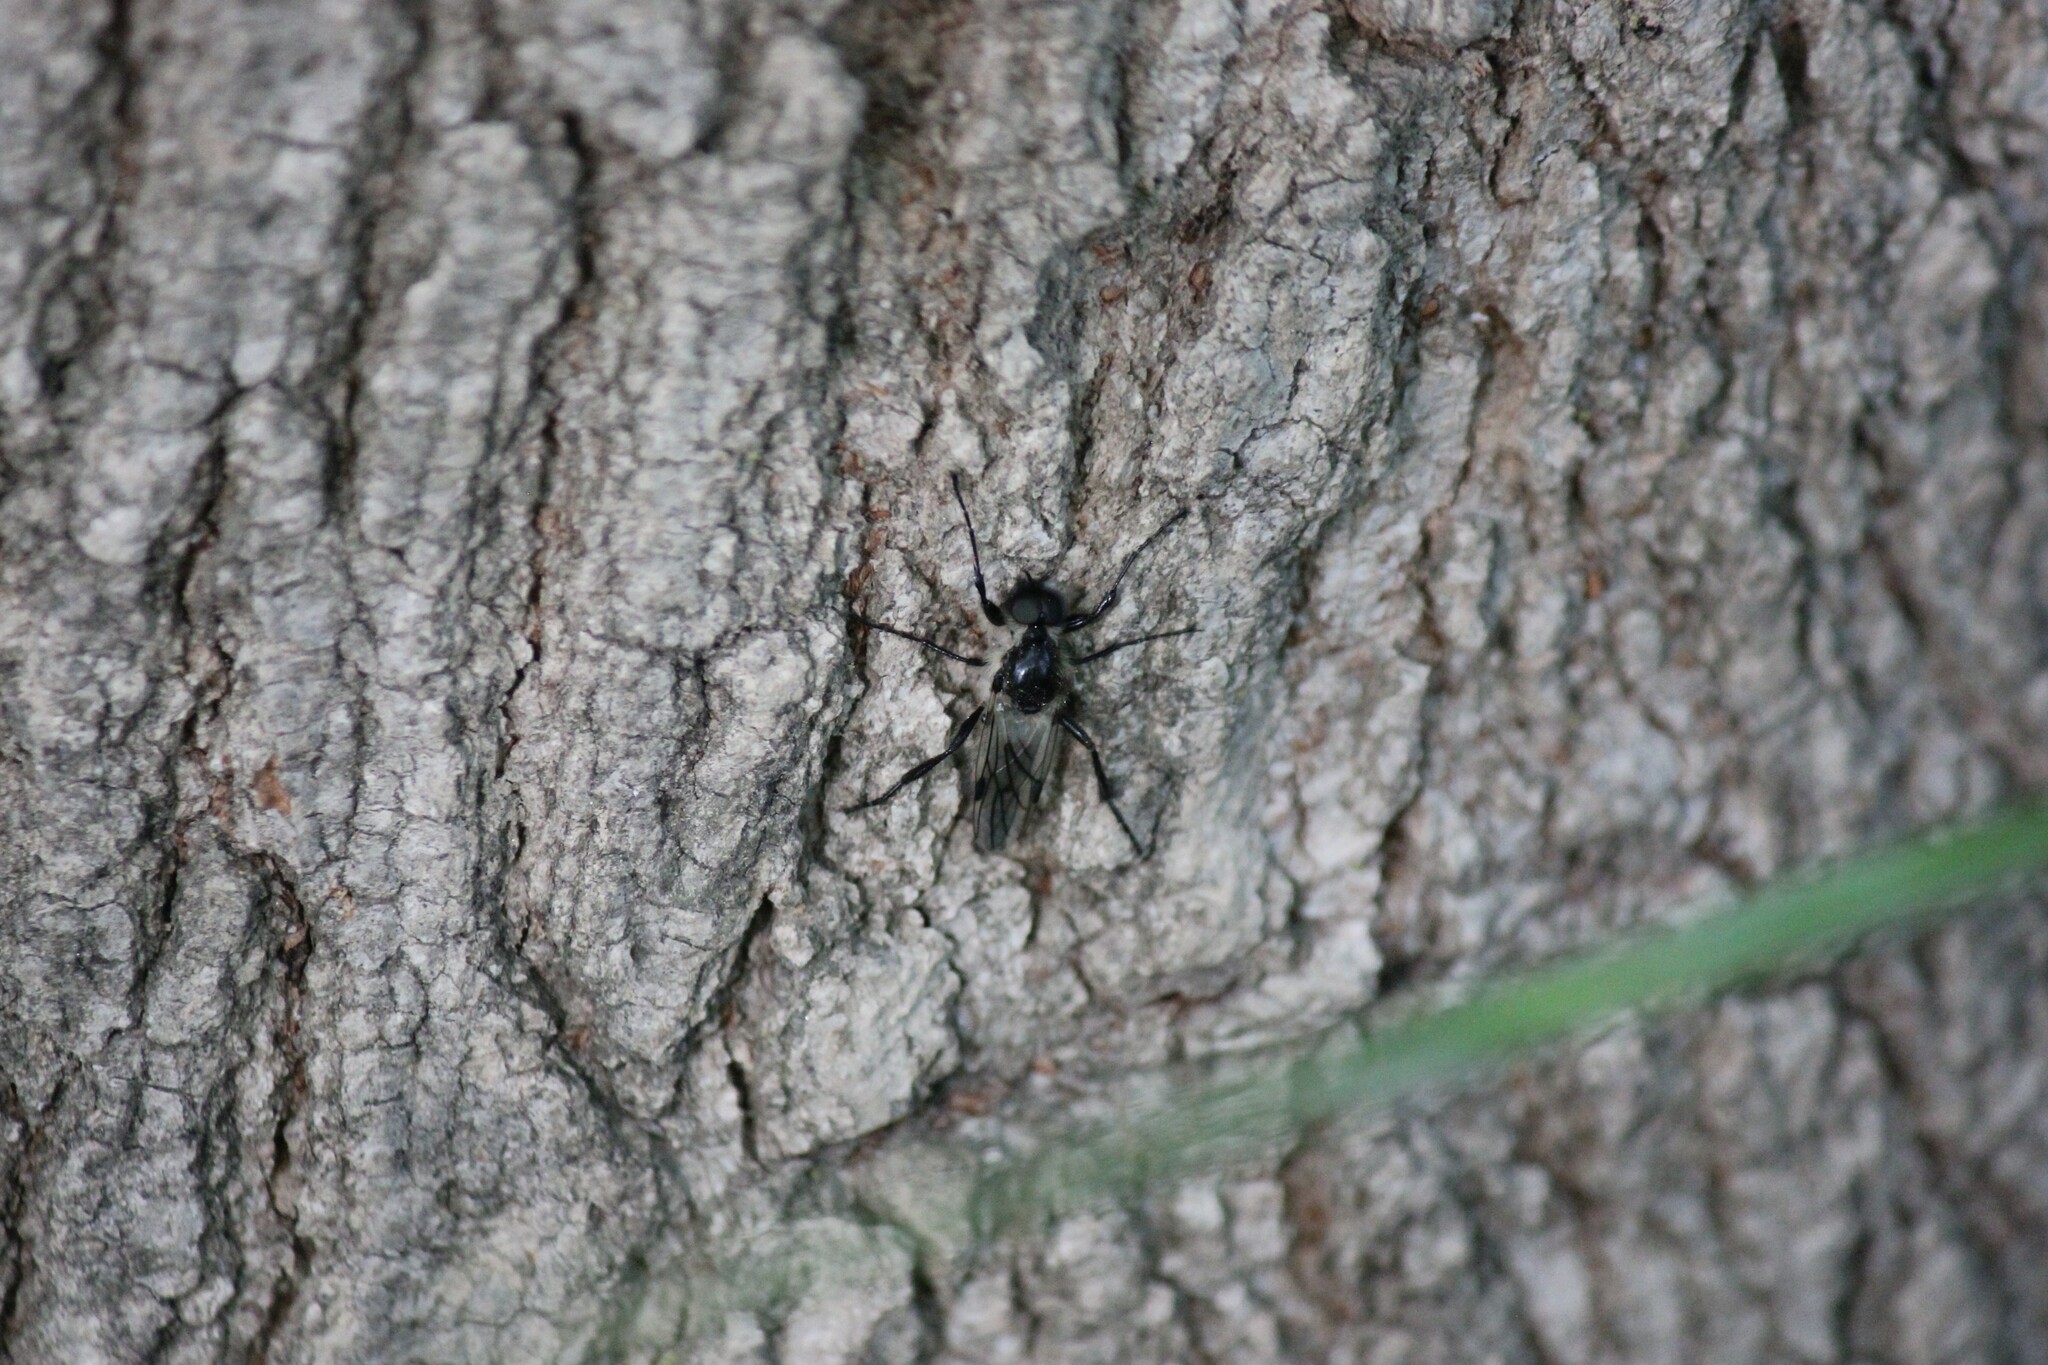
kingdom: Animalia
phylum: Arthropoda
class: Insecta
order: Diptera
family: Bibionidae
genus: Bibio
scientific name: Bibio albipennis
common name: White-winged march fly
